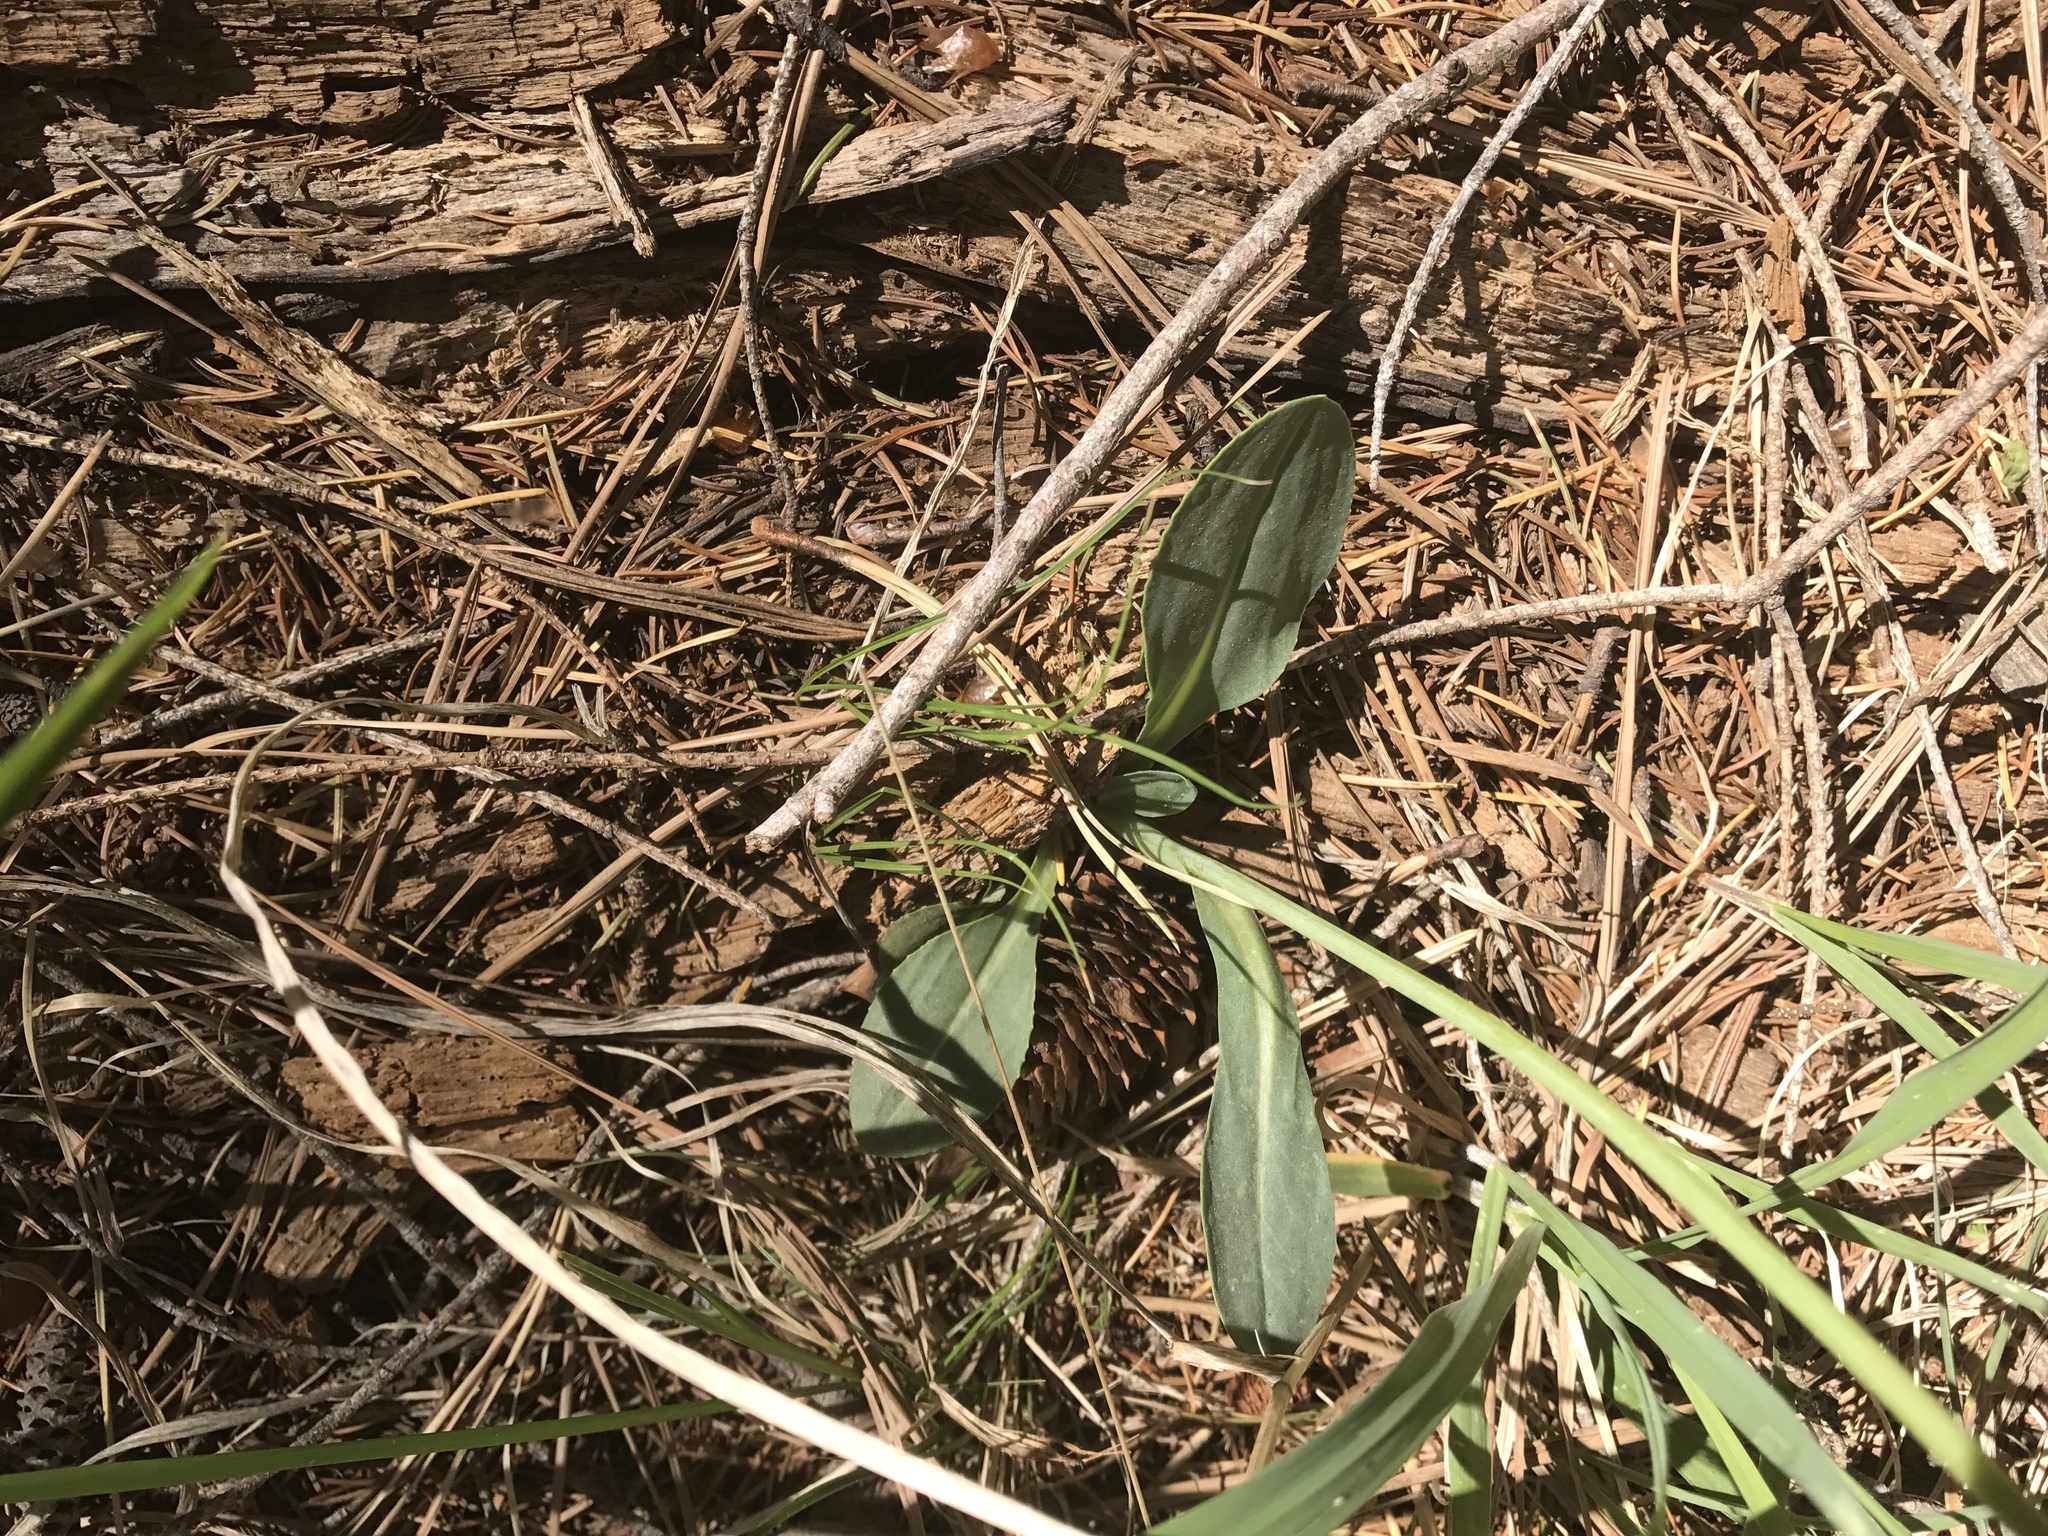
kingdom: Plantae
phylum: Tracheophyta
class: Magnoliopsida
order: Asterales
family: Asteraceae
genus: Senecio
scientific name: Senecio wootonii
